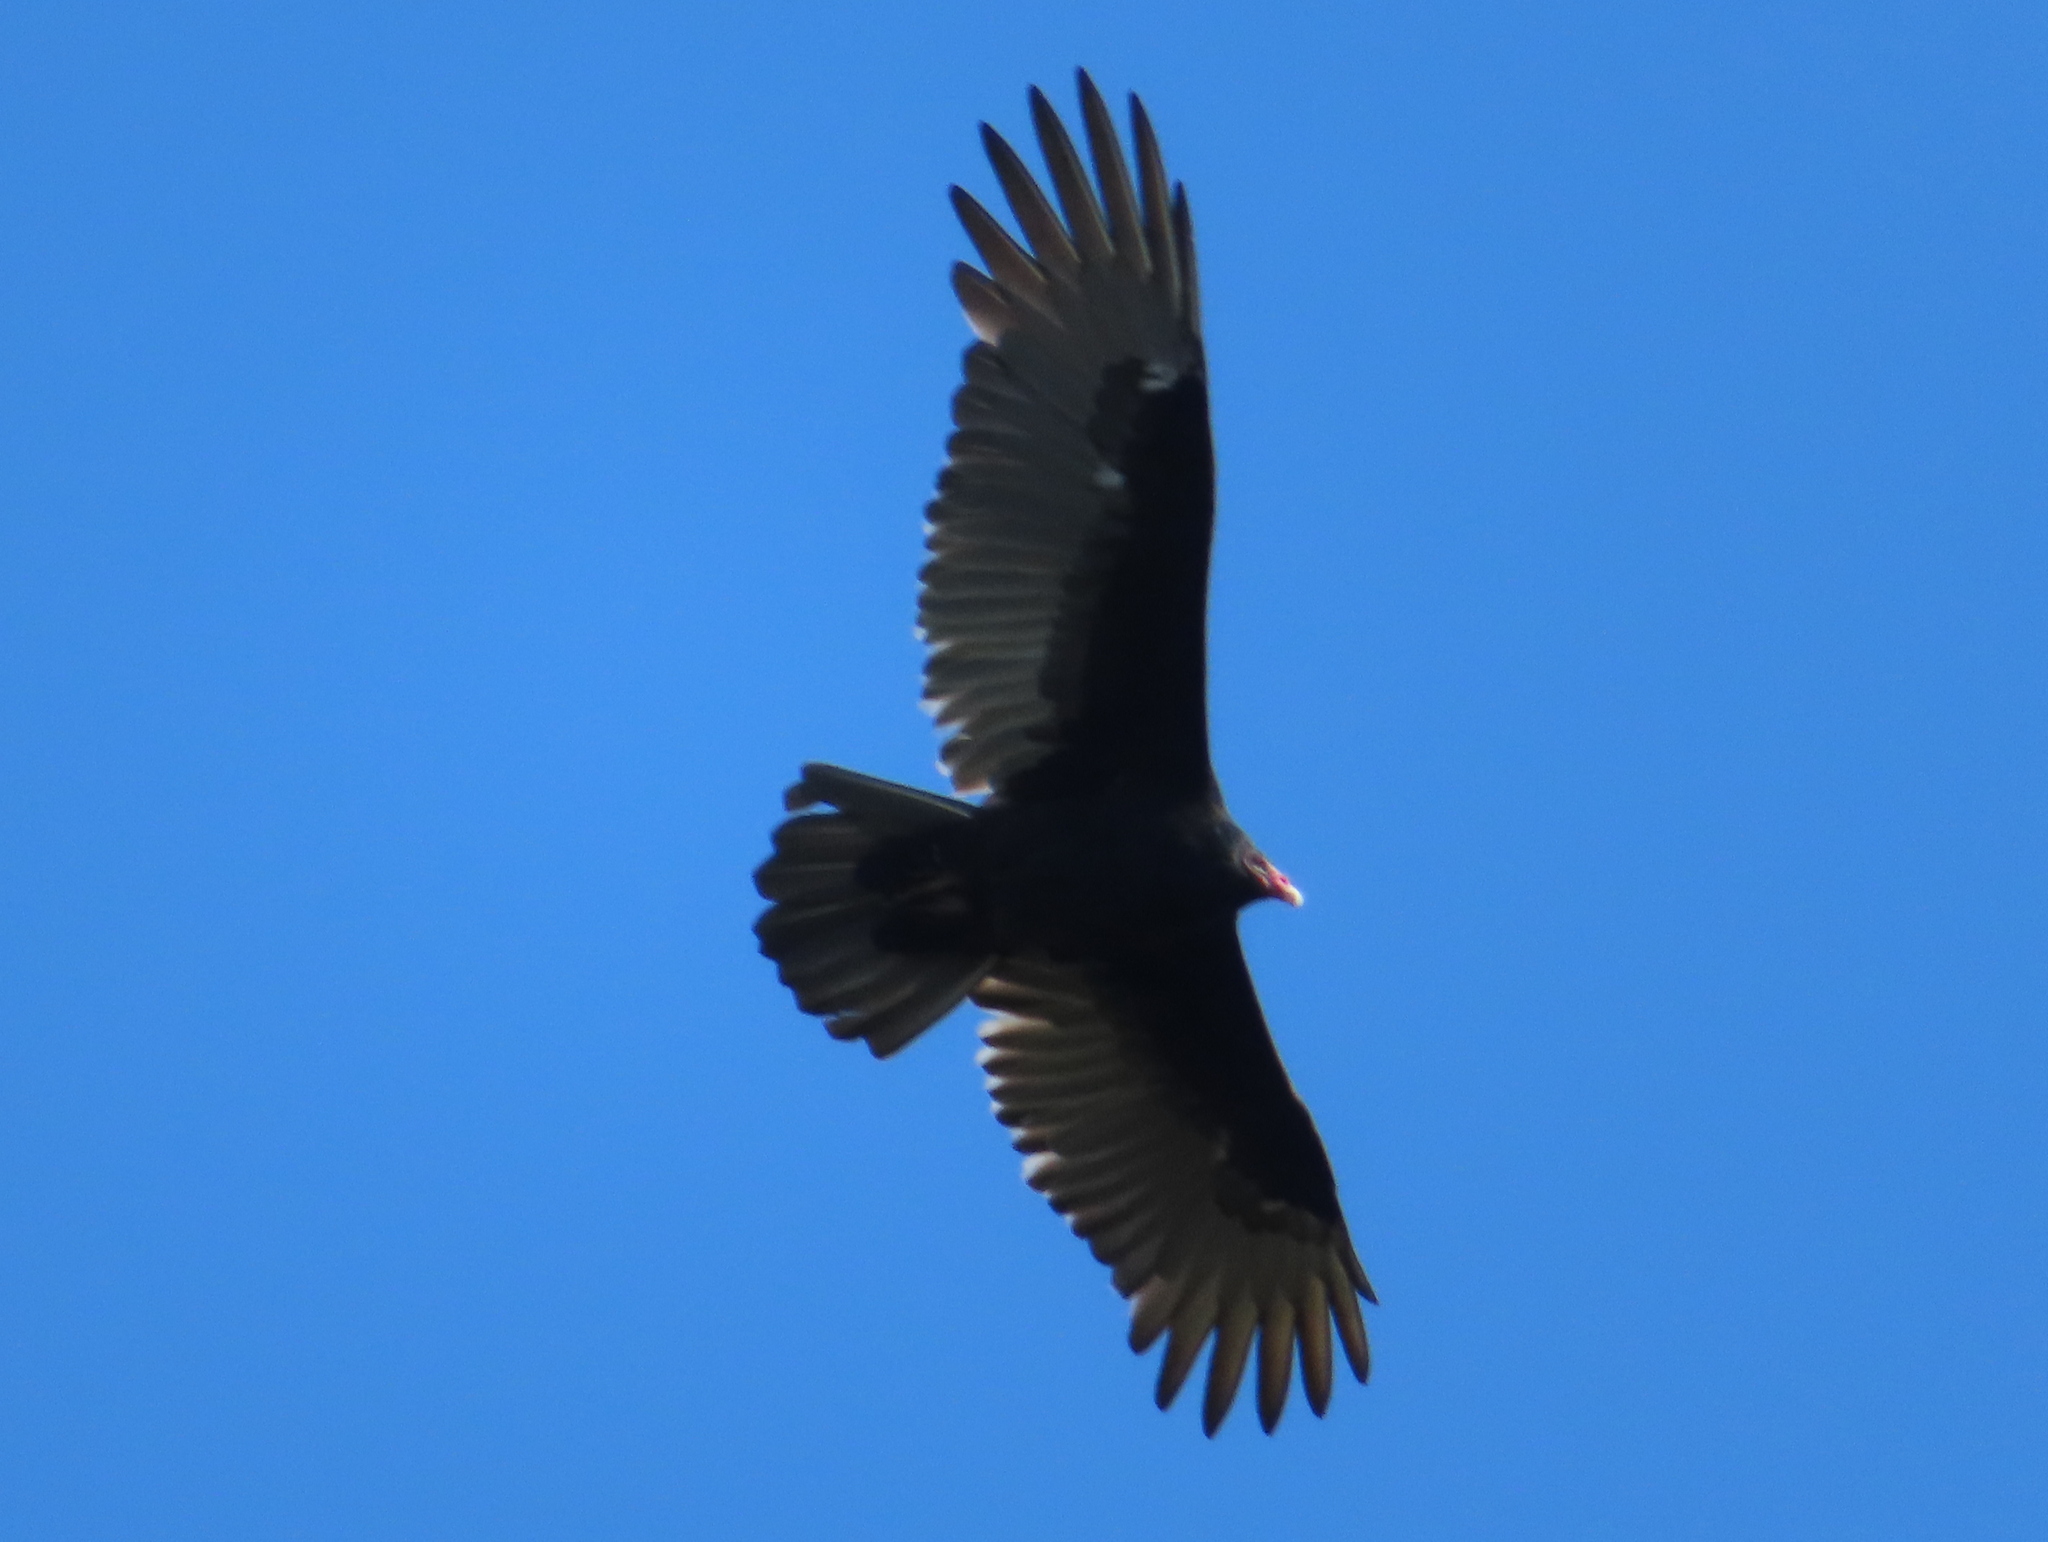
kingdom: Animalia
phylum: Chordata
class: Aves
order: Accipitriformes
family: Cathartidae
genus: Cathartes
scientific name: Cathartes aura
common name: Turkey vulture
